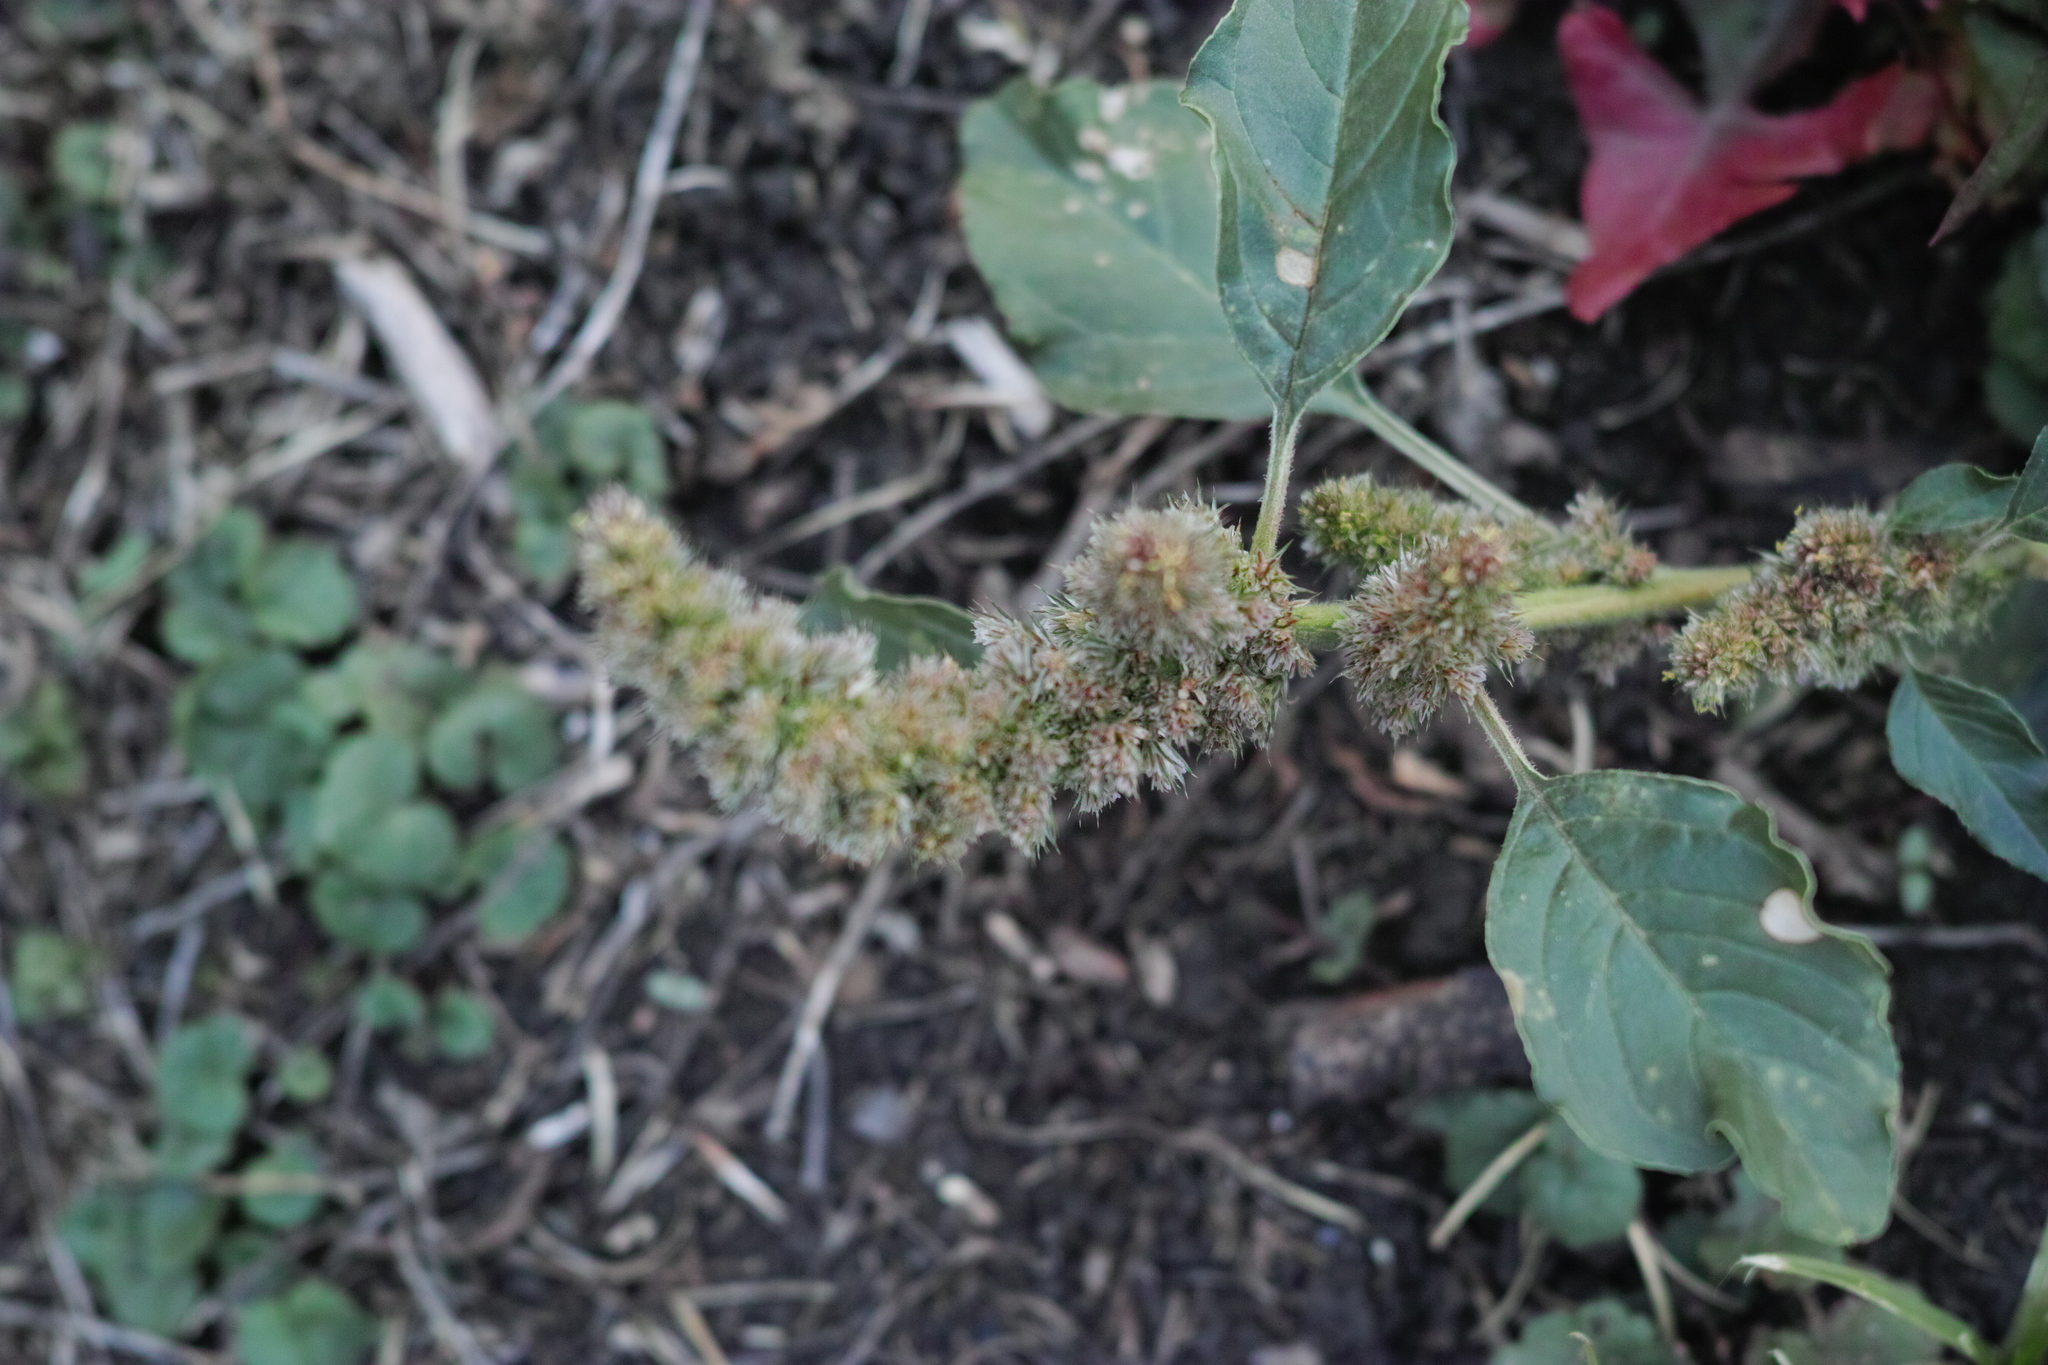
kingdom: Plantae
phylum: Tracheophyta
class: Magnoliopsida
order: Caryophyllales
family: Amaranthaceae
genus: Amaranthus
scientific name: Amaranthus retroflexus
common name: Redroot amaranth
